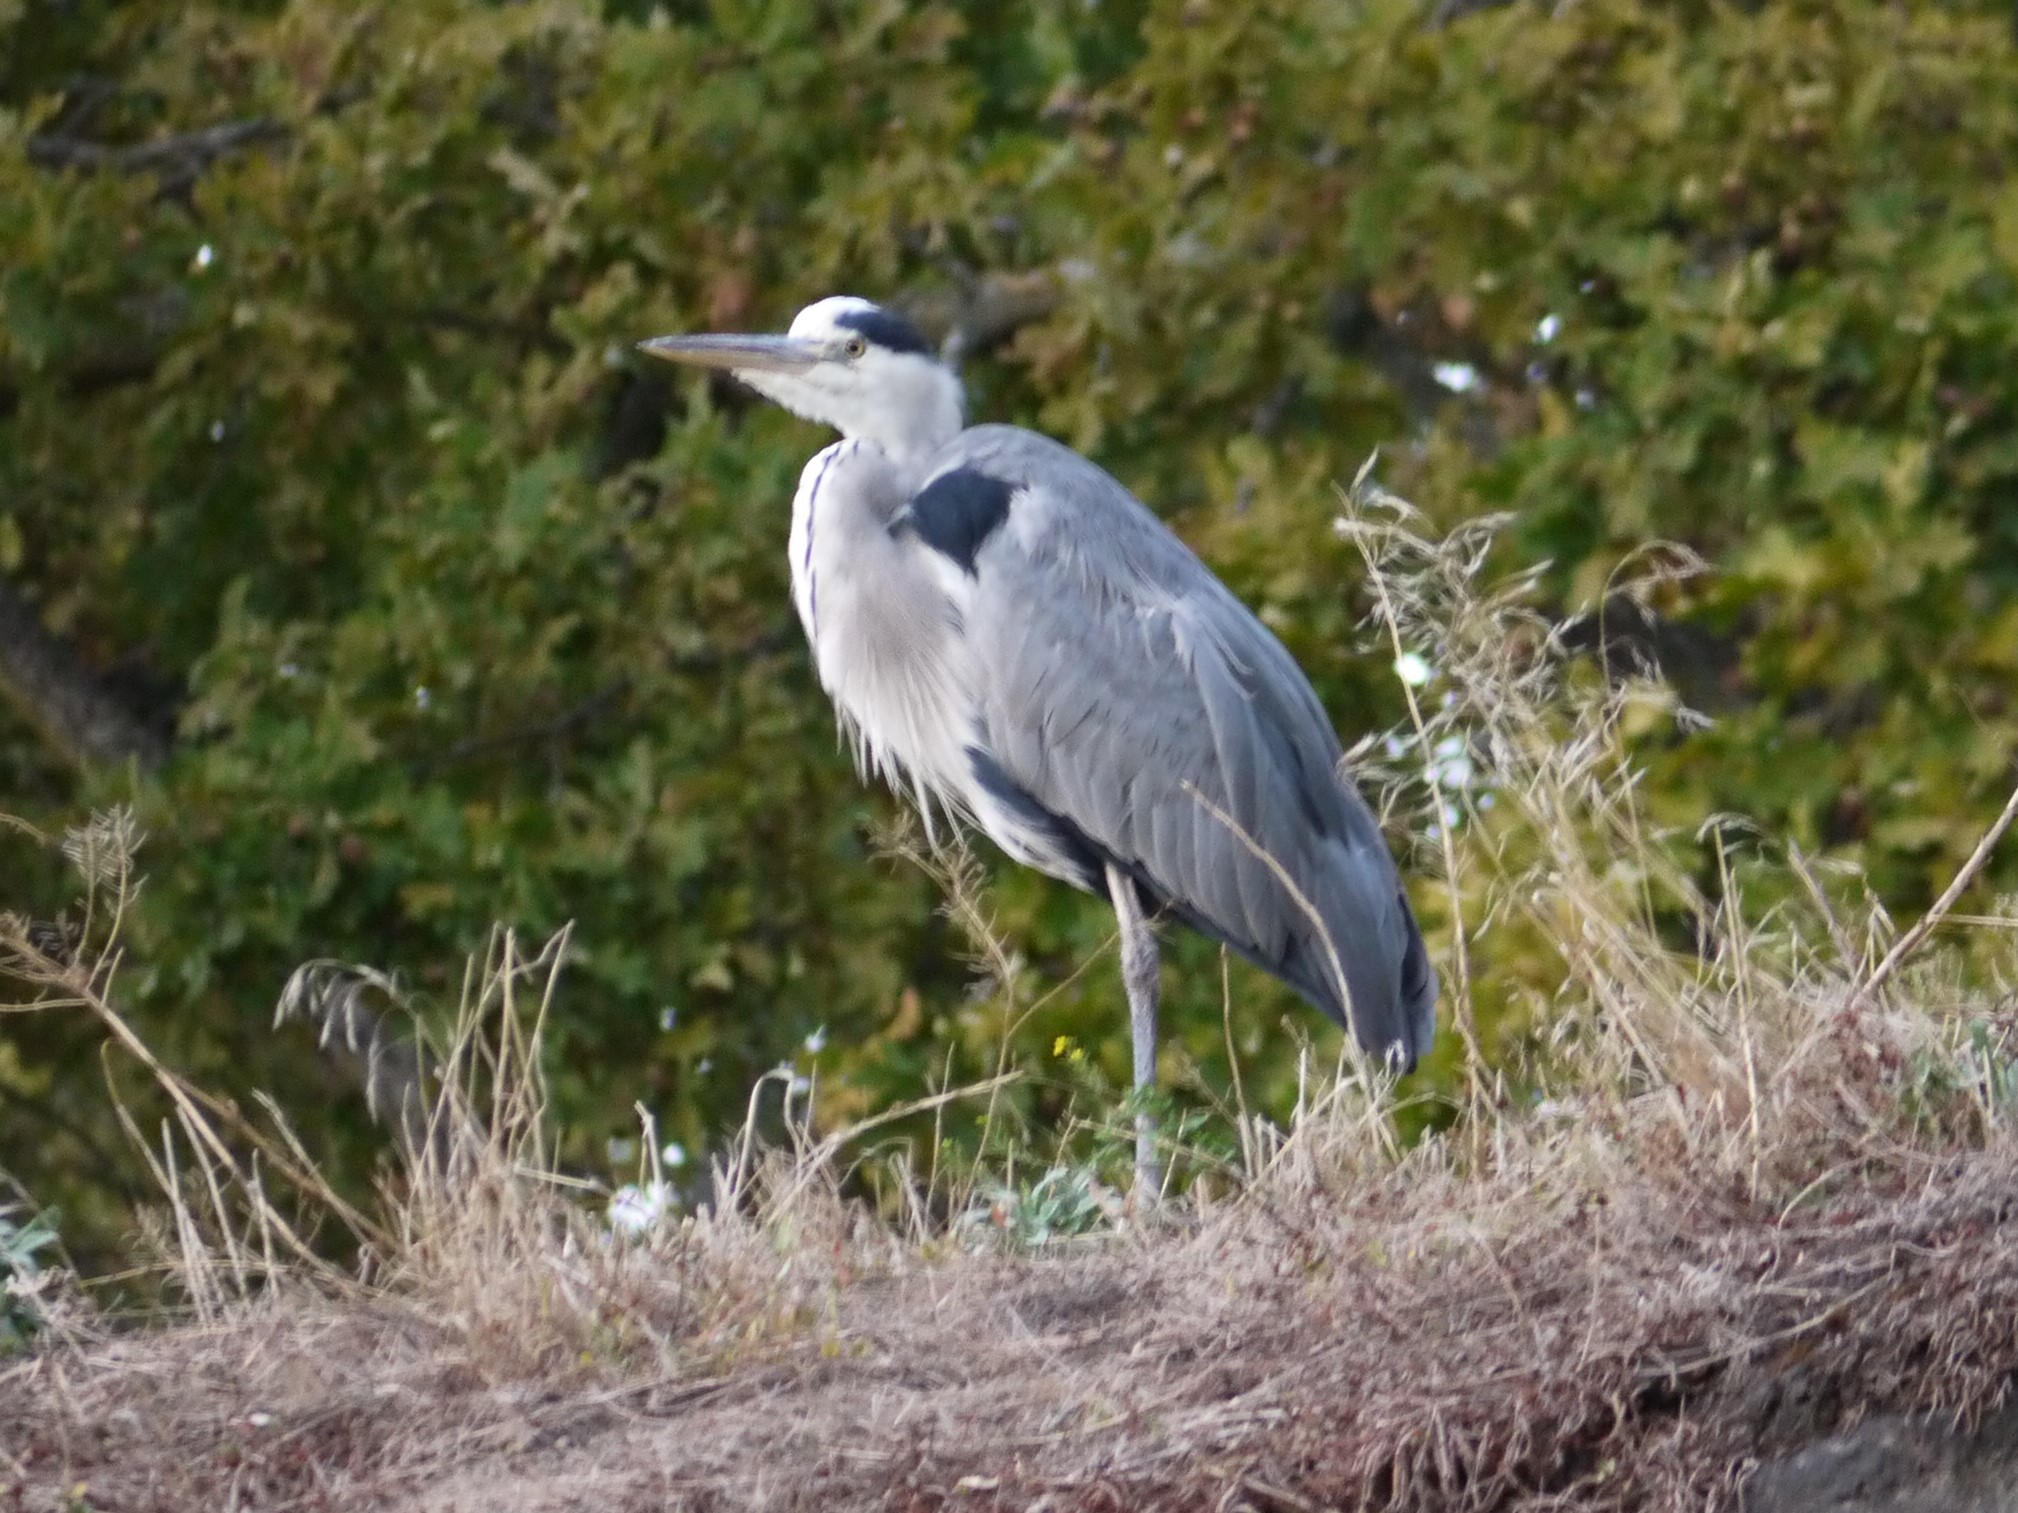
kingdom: Animalia
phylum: Chordata
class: Aves
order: Pelecaniformes
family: Ardeidae
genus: Ardea
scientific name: Ardea cinerea
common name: Grey heron
